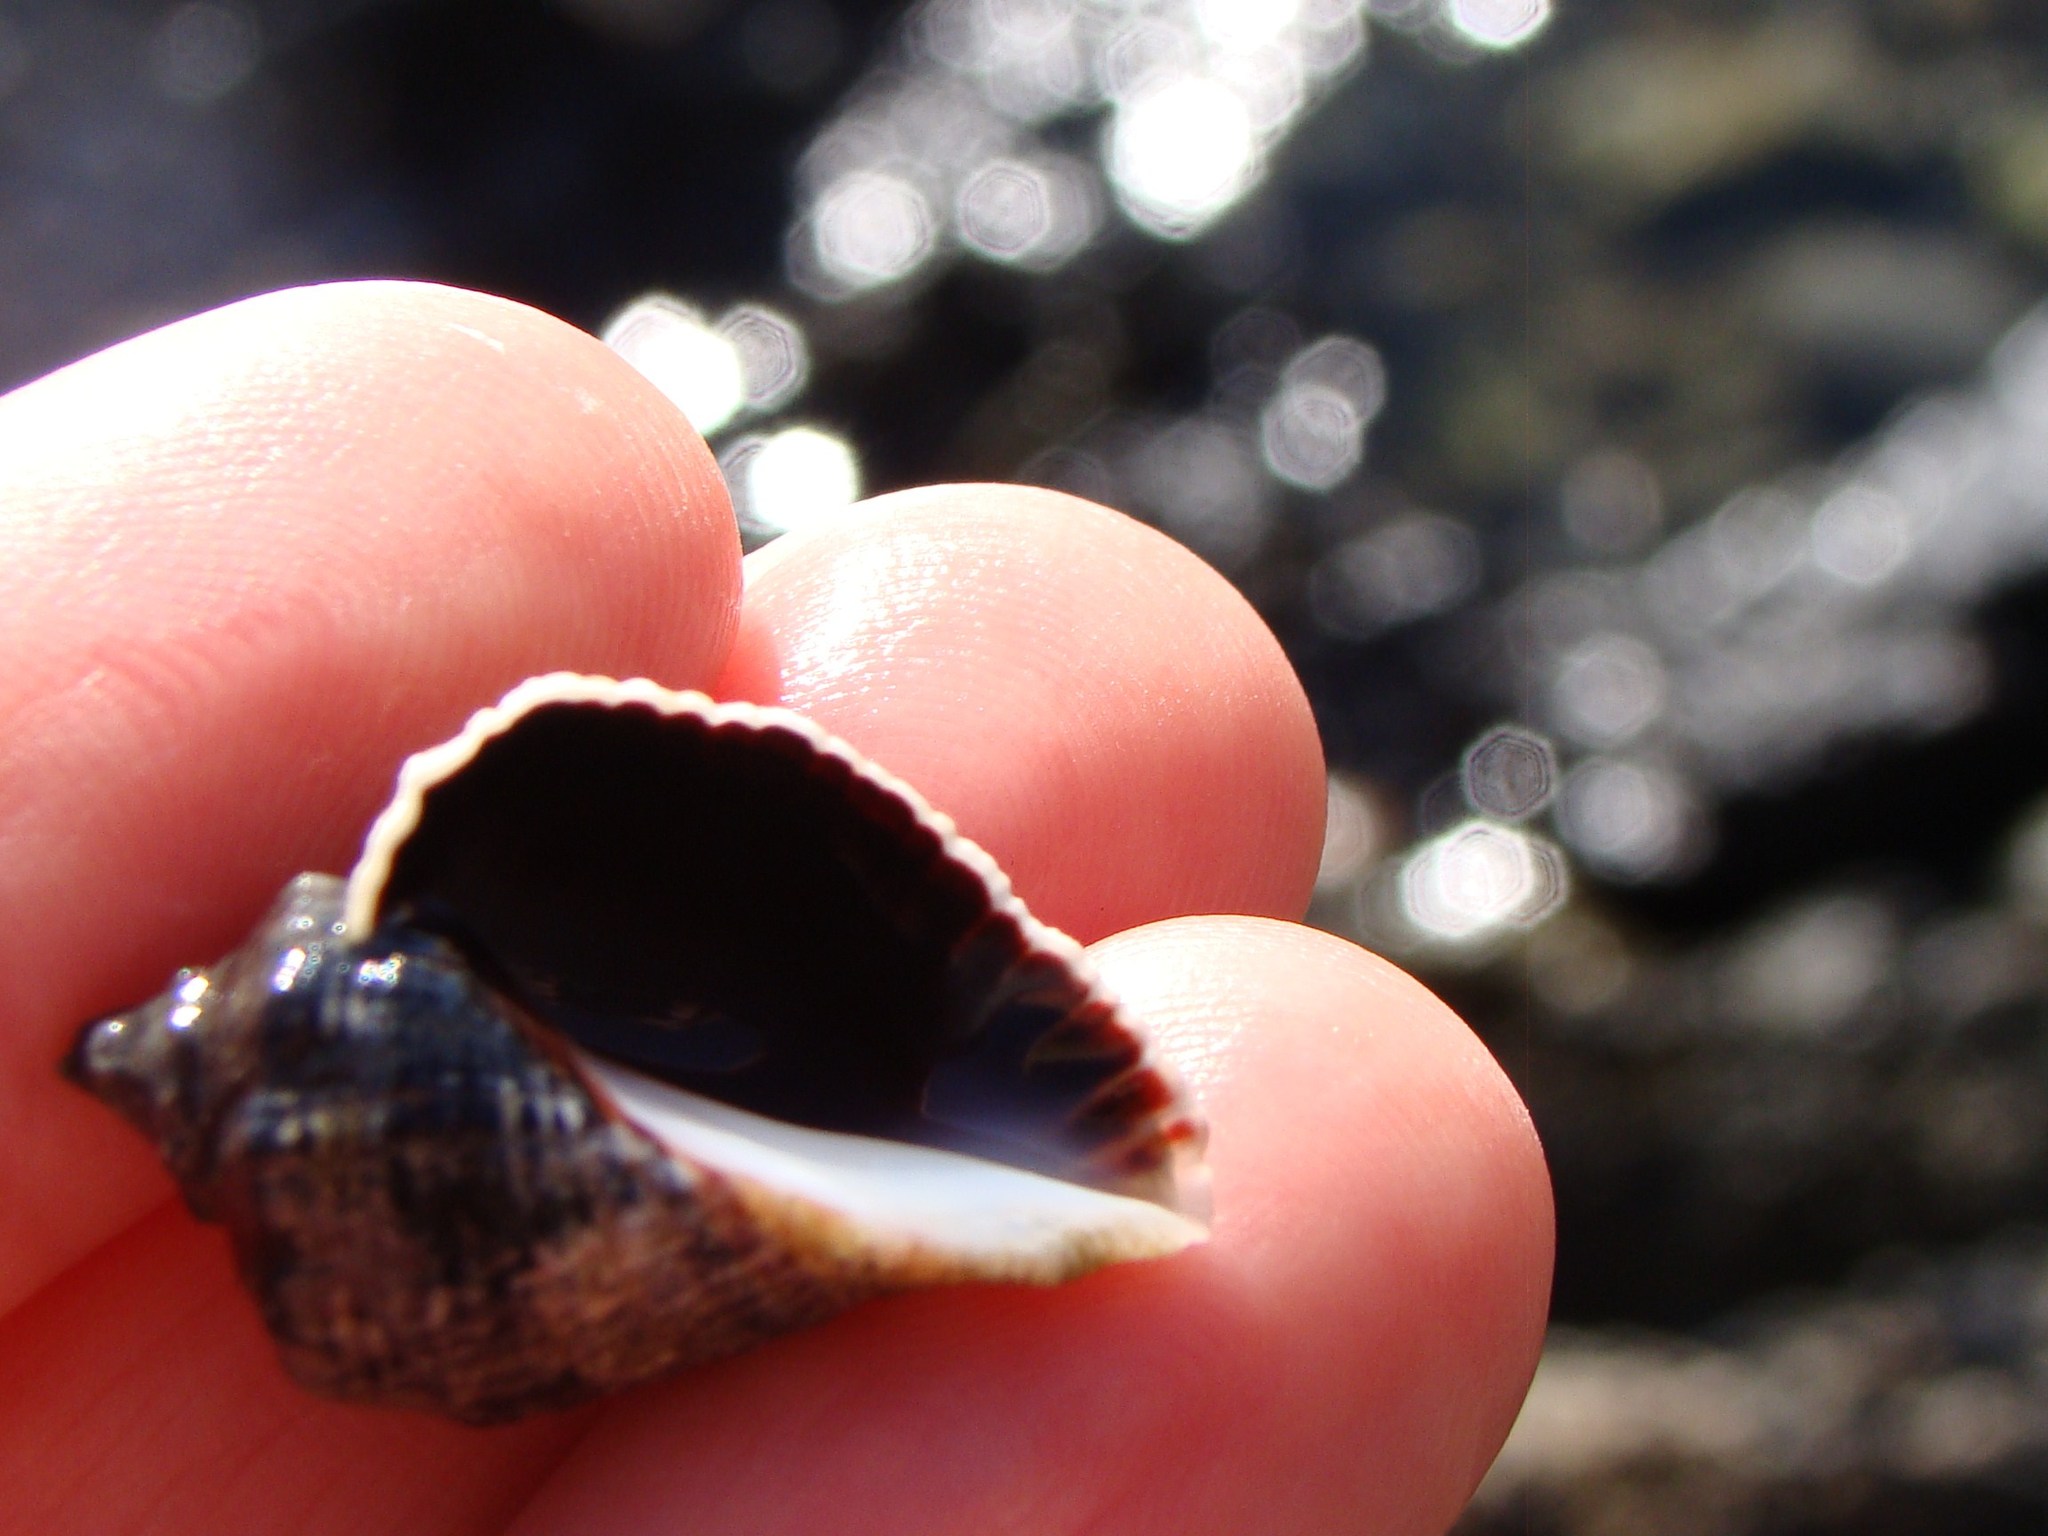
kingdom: Animalia
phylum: Mollusca
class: Gastropoda
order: Neogastropoda
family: Muricidae
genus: Haustrum
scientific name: Haustrum haustorium
